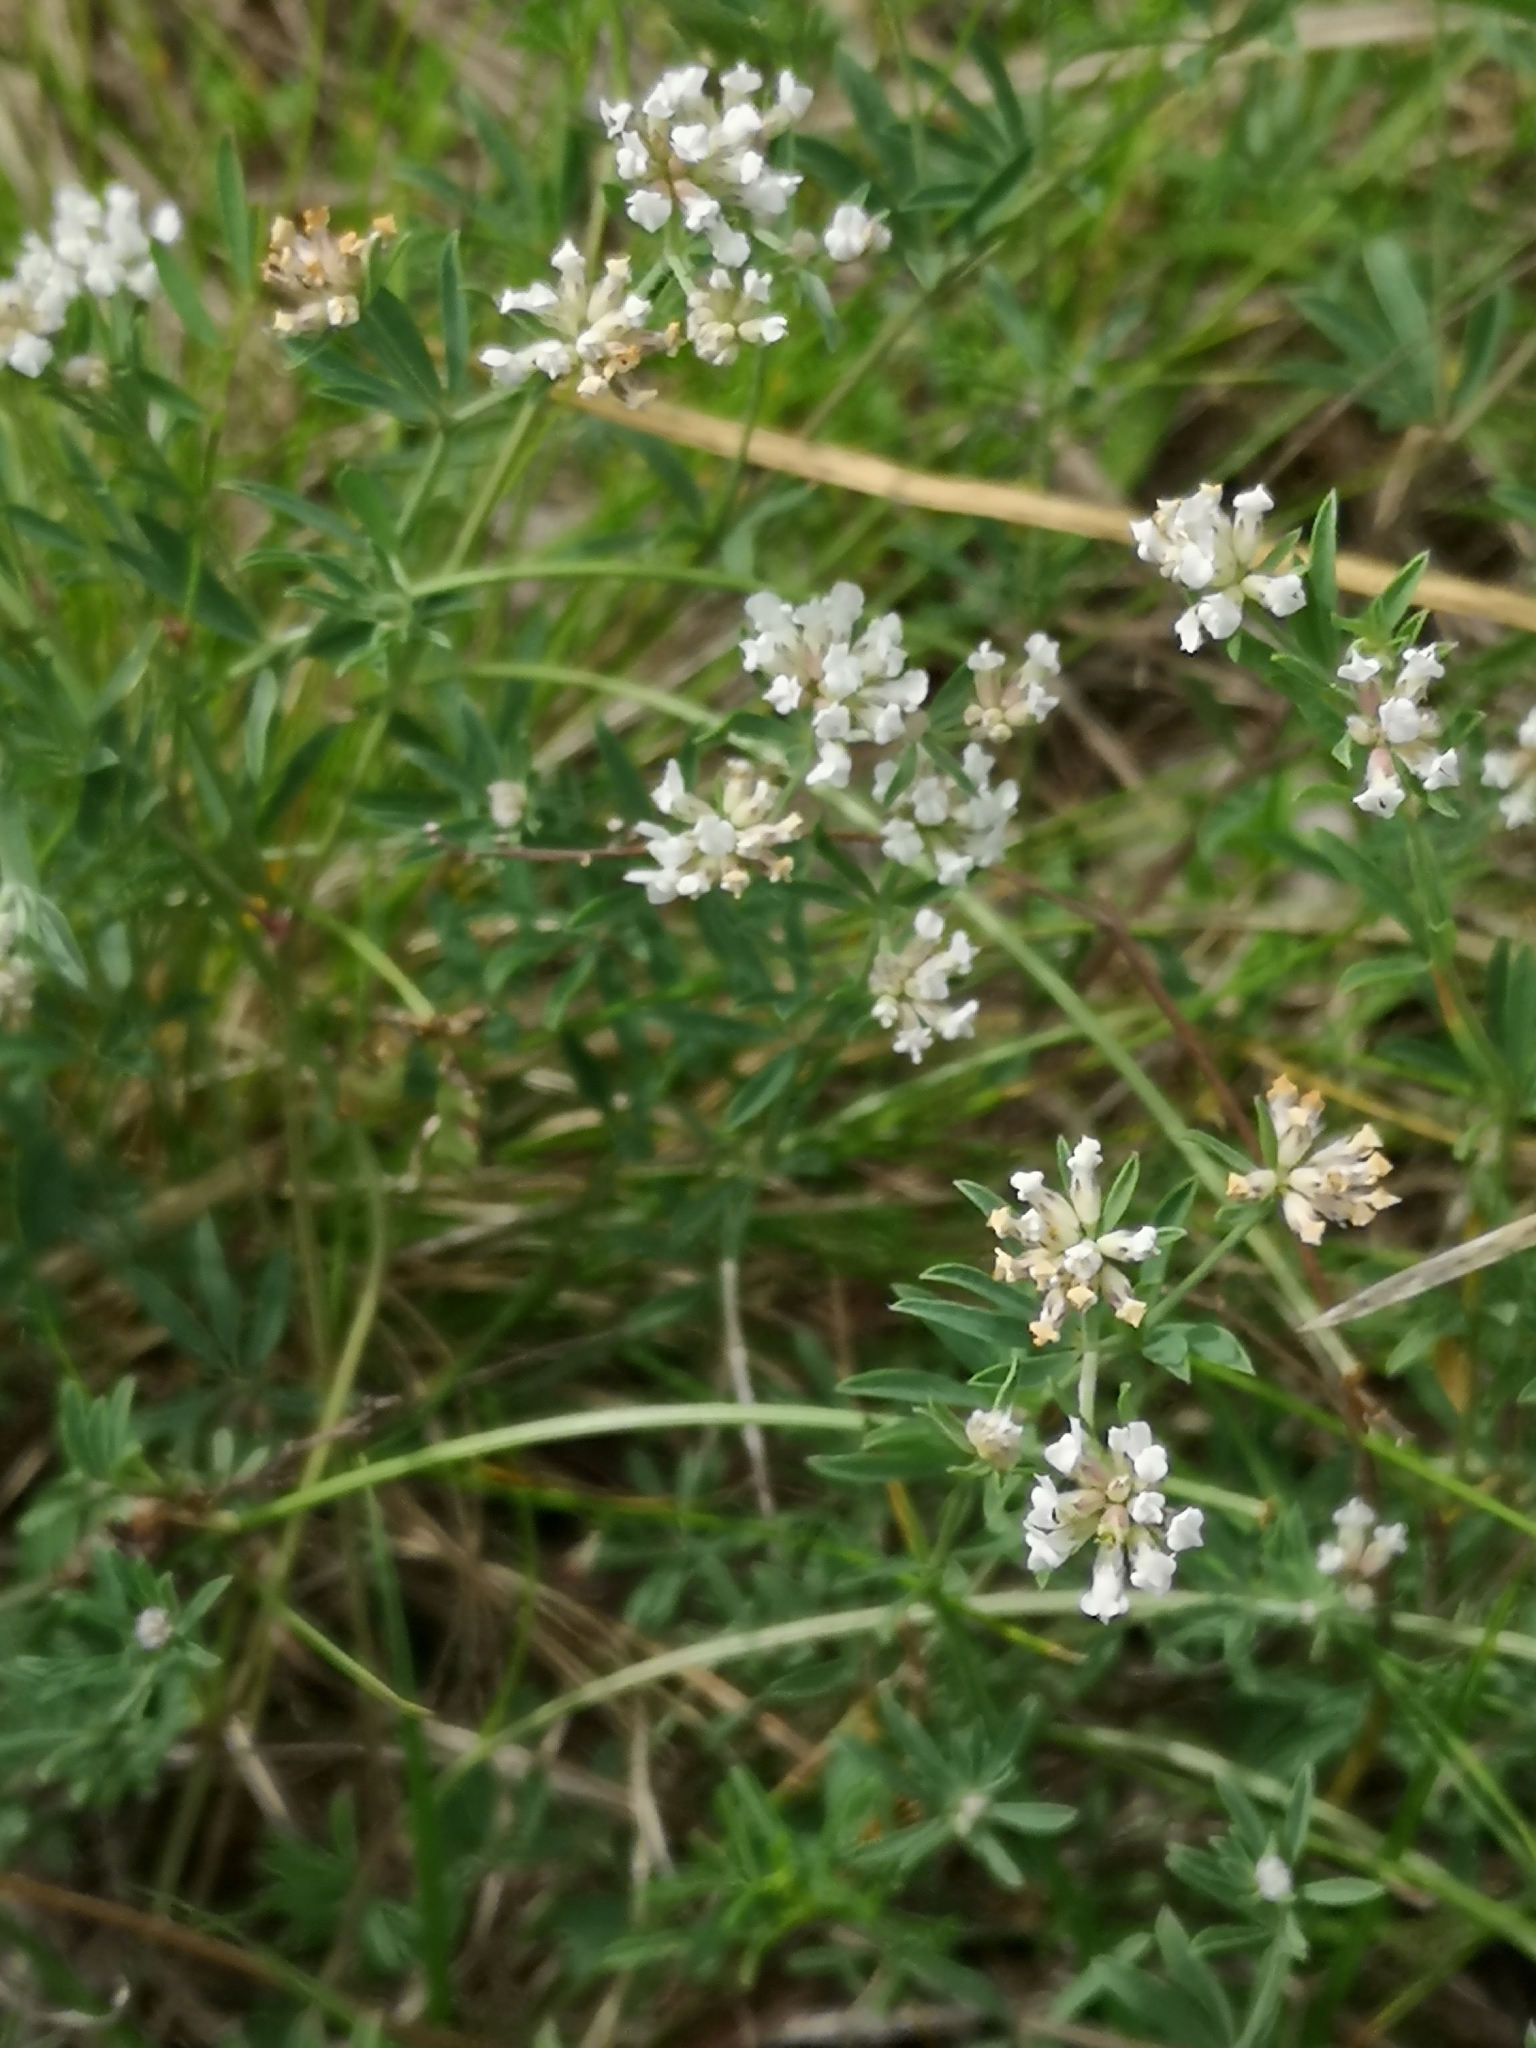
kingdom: Plantae
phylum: Tracheophyta
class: Magnoliopsida
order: Fabales
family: Fabaceae
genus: Lotus
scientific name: Lotus dorycnium
